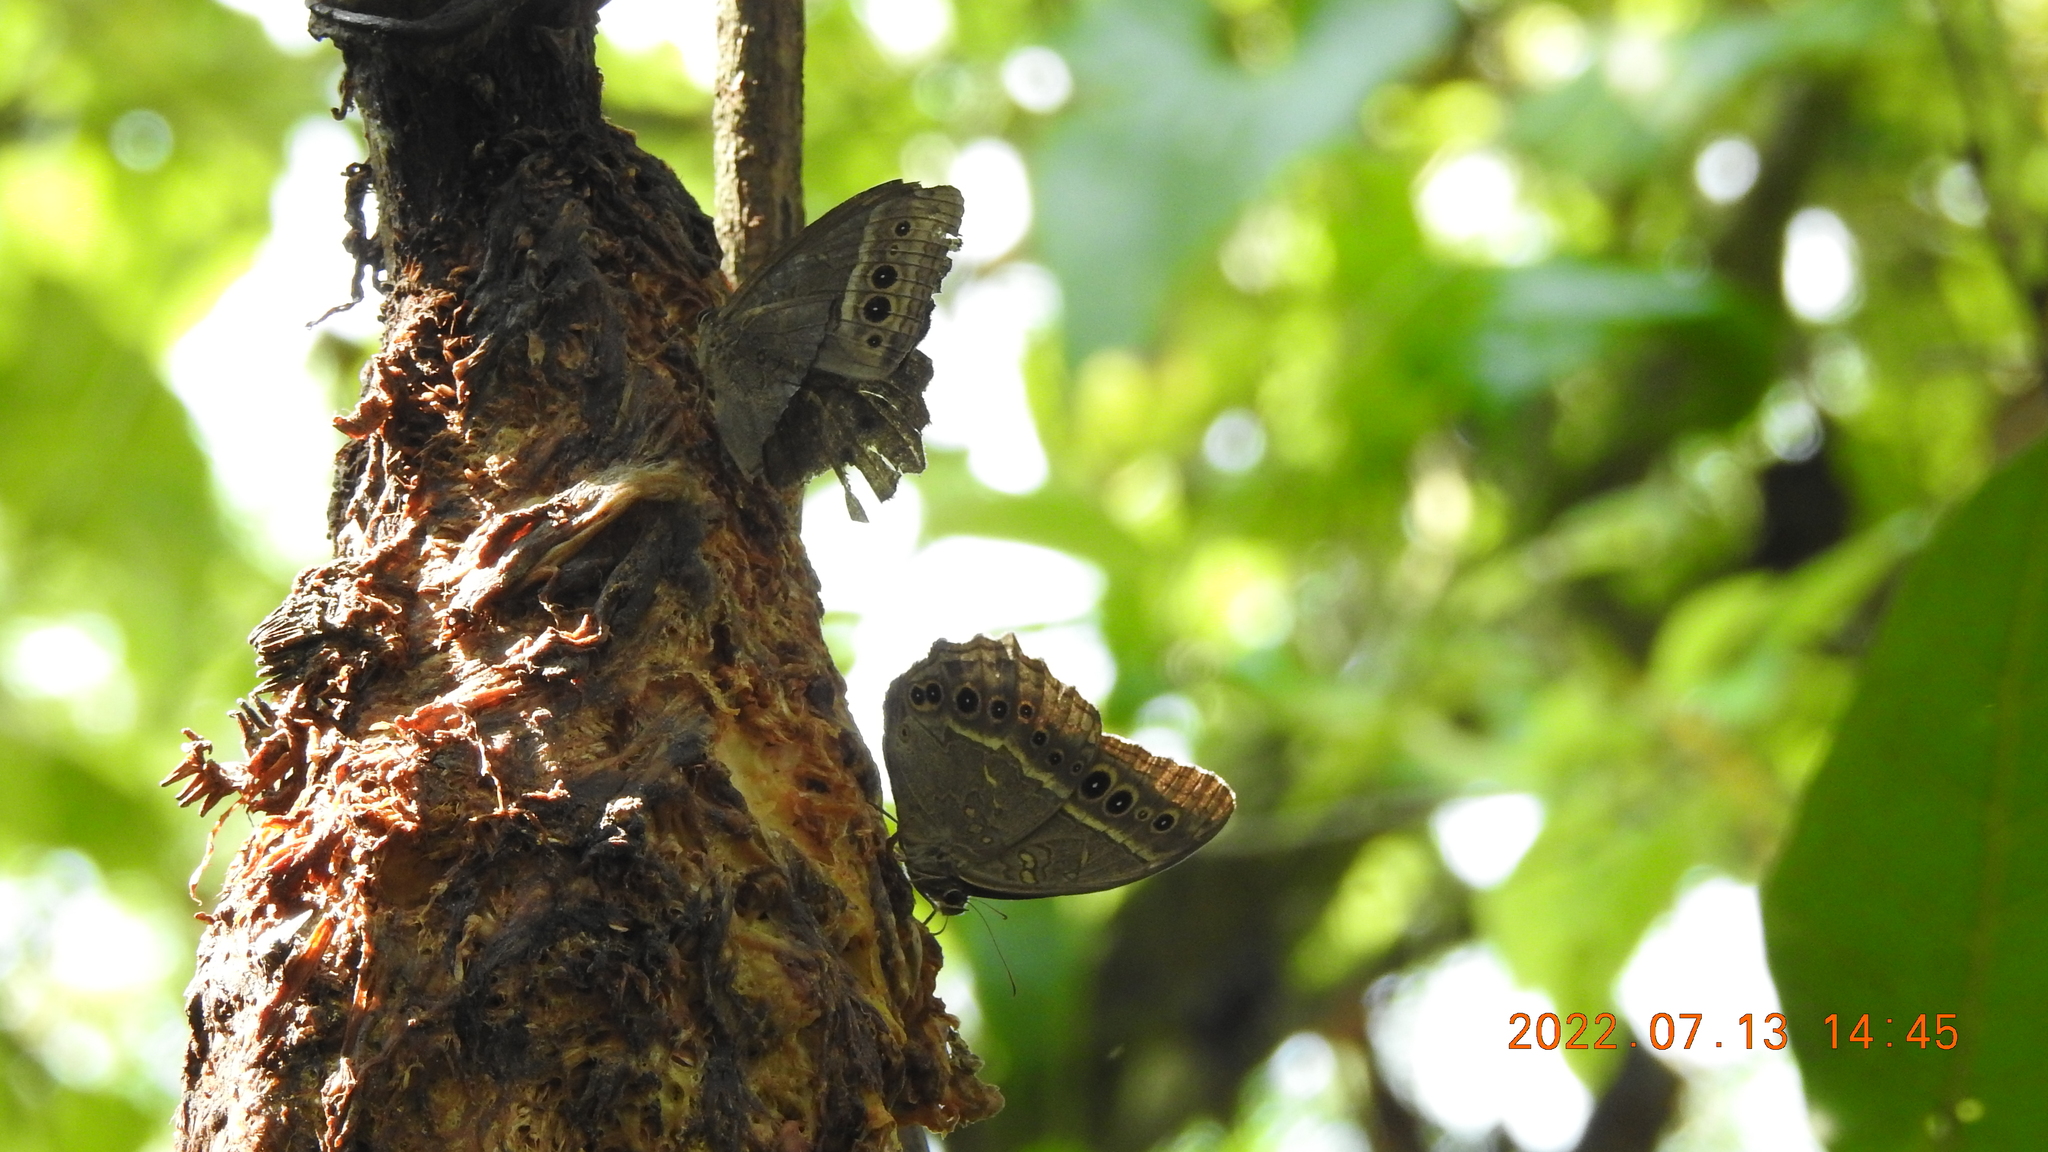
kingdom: Animalia
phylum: Arthropoda
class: Insecta
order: Lepidoptera
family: Nymphalidae
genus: Neope
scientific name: Neope muirheadii
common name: Black-spotted labyrinth
